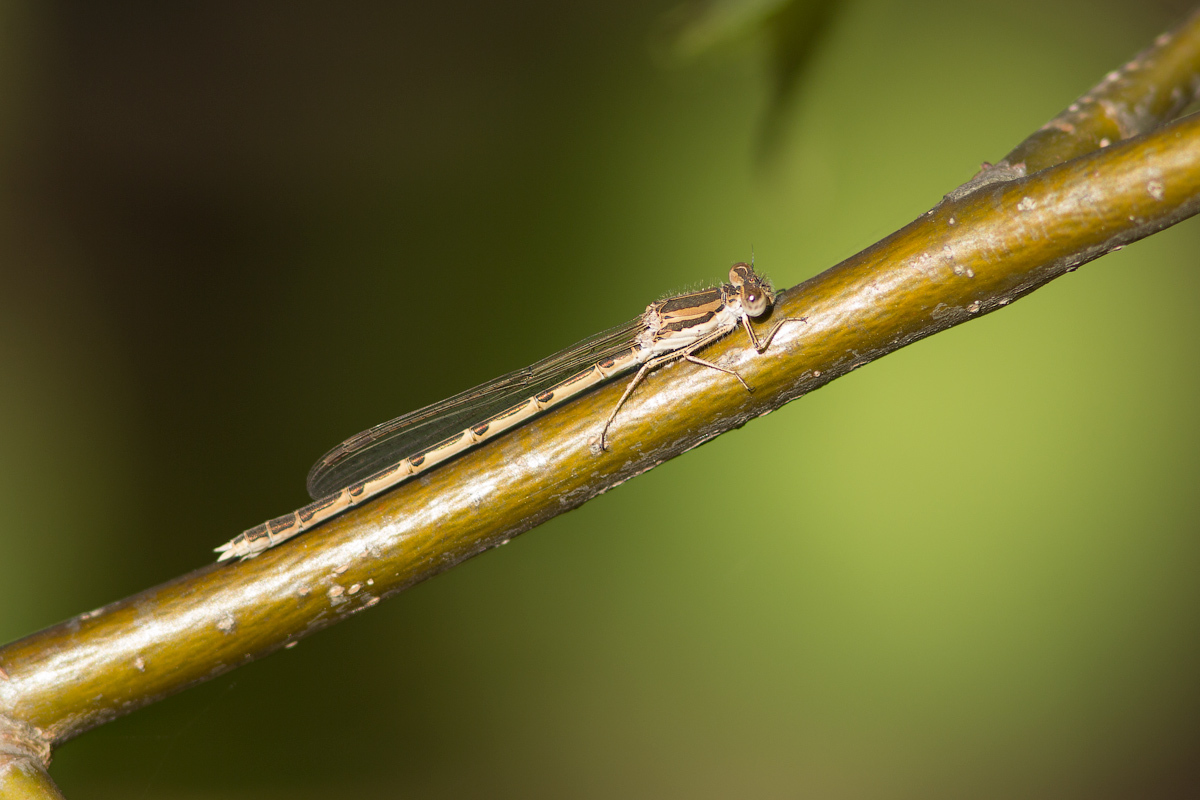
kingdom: Animalia
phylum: Arthropoda
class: Insecta
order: Odonata
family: Lestidae
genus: Sympecma
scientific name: Sympecma fusca
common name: Common winter damsel
